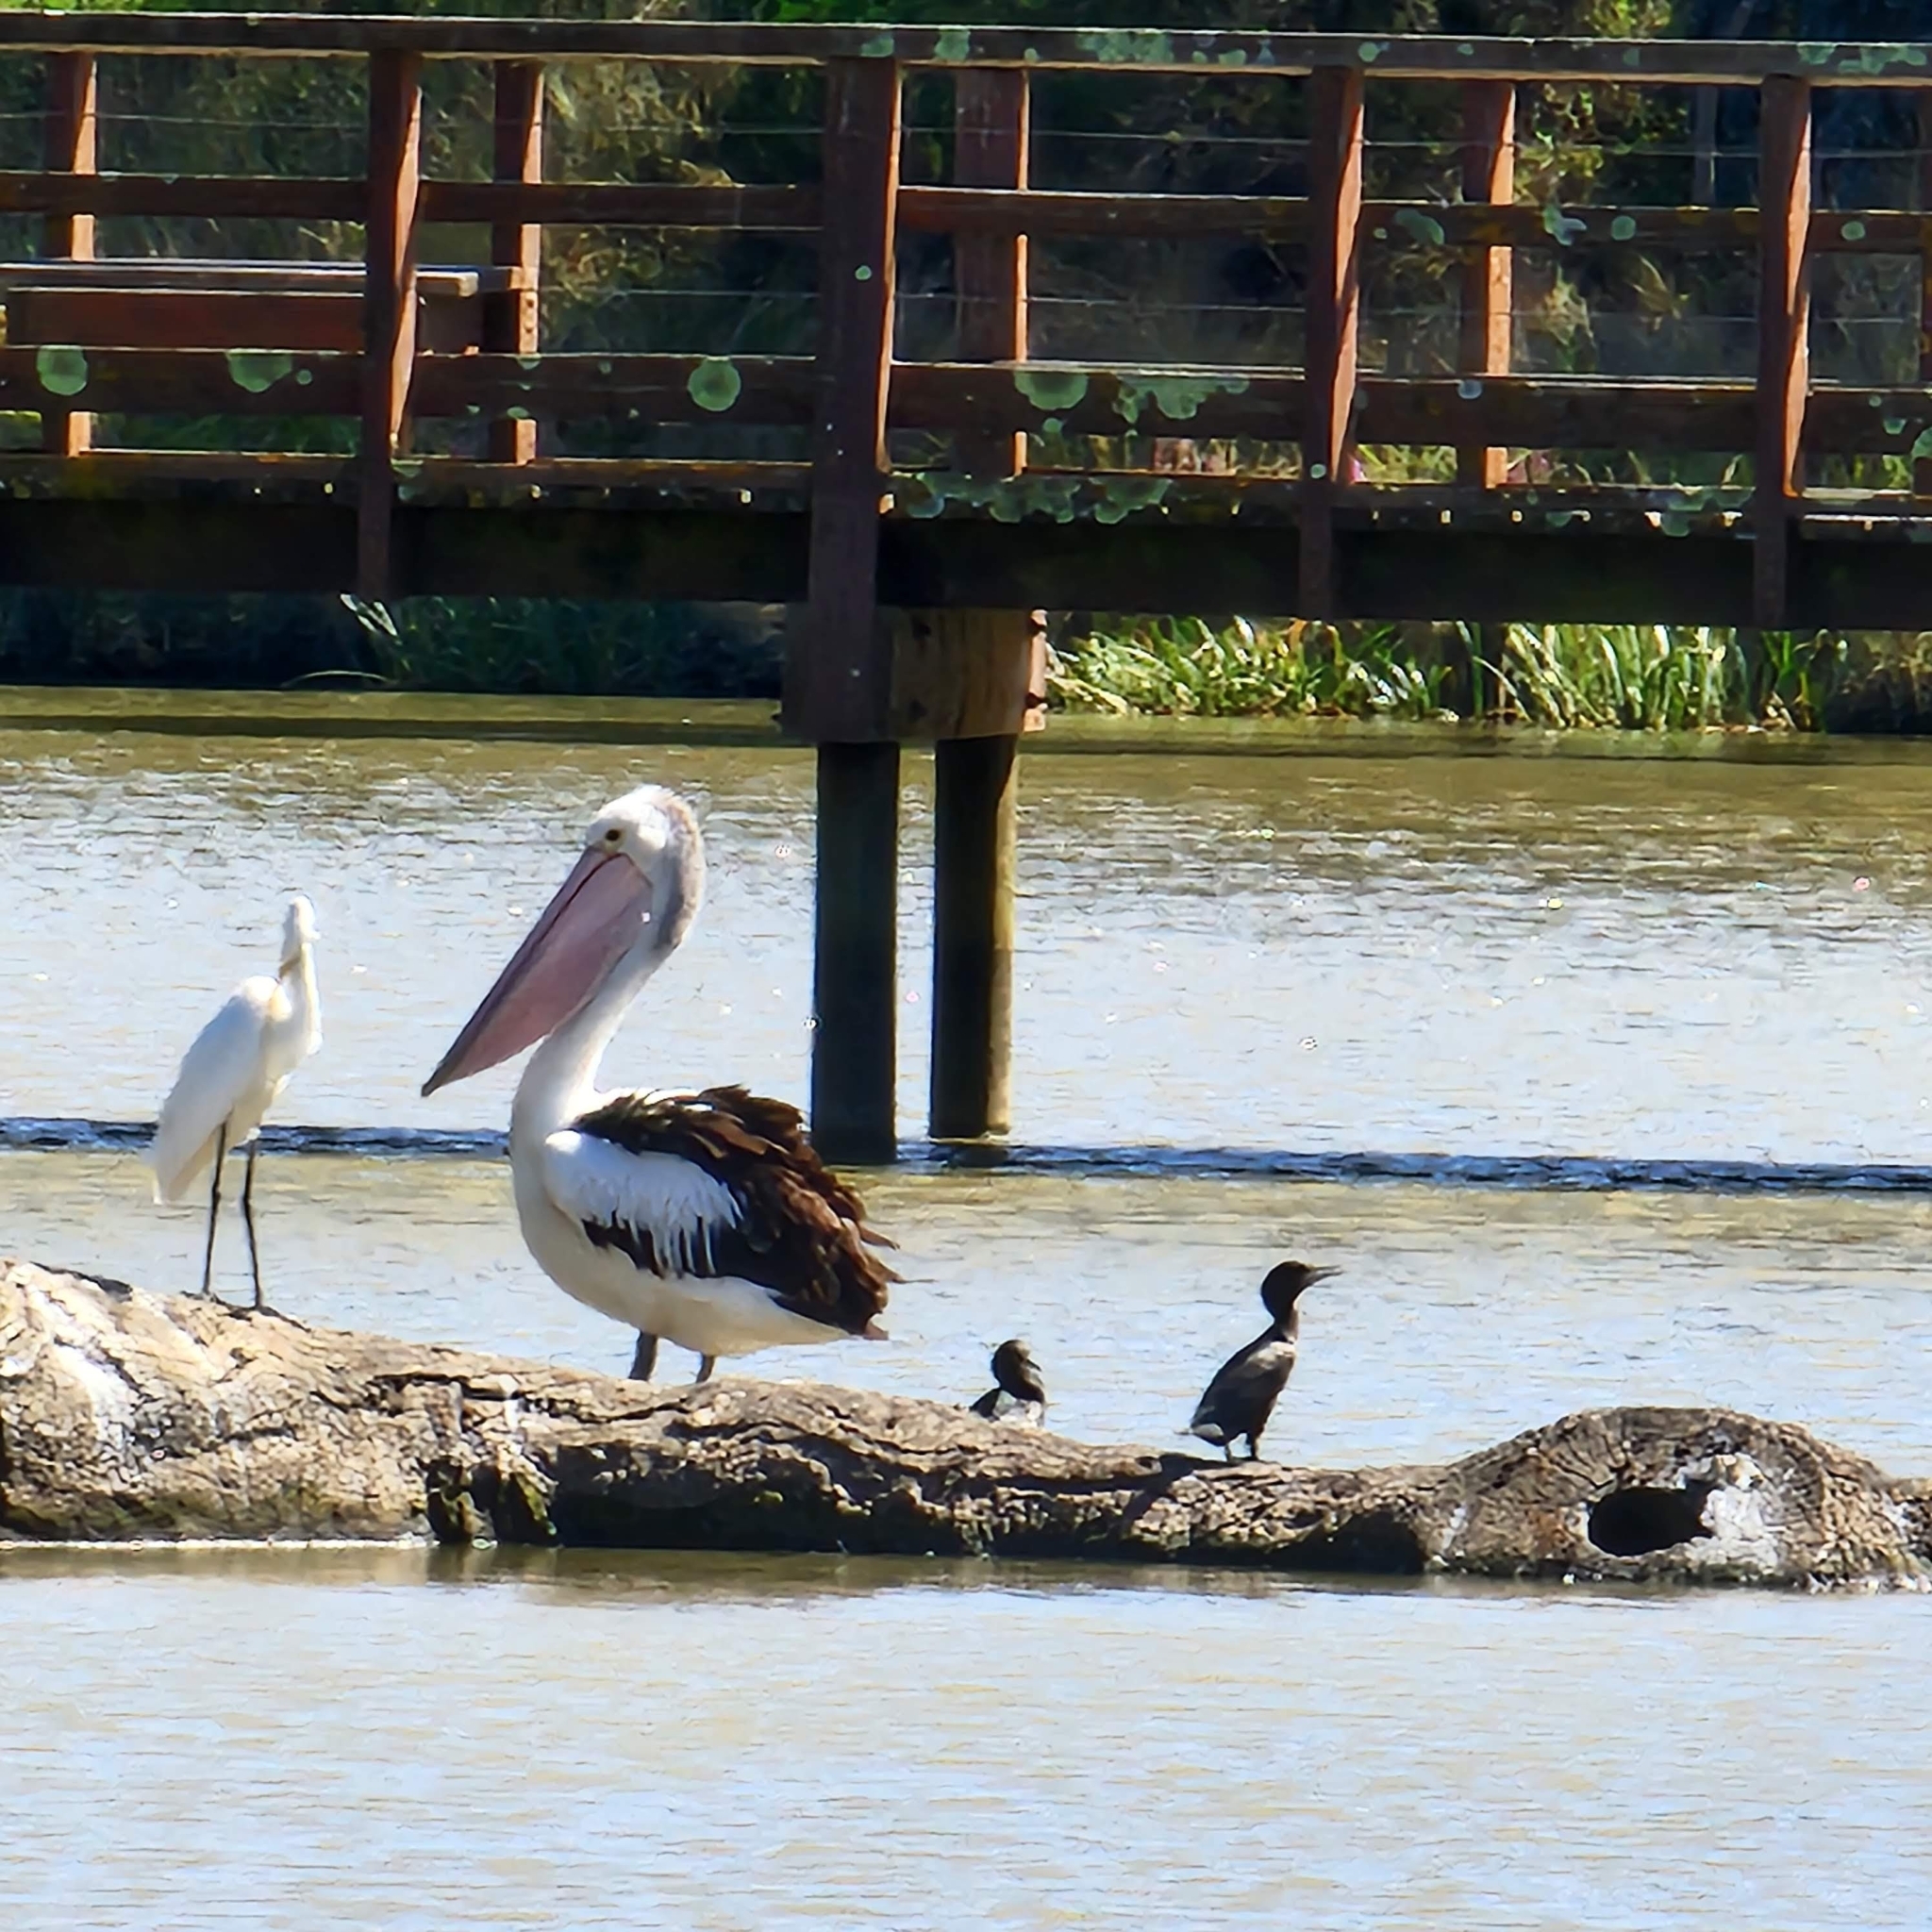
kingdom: Animalia
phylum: Chordata
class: Aves
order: Pelecaniformes
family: Pelecanidae
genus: Pelecanus
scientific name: Pelecanus conspicillatus
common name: Australian pelican
